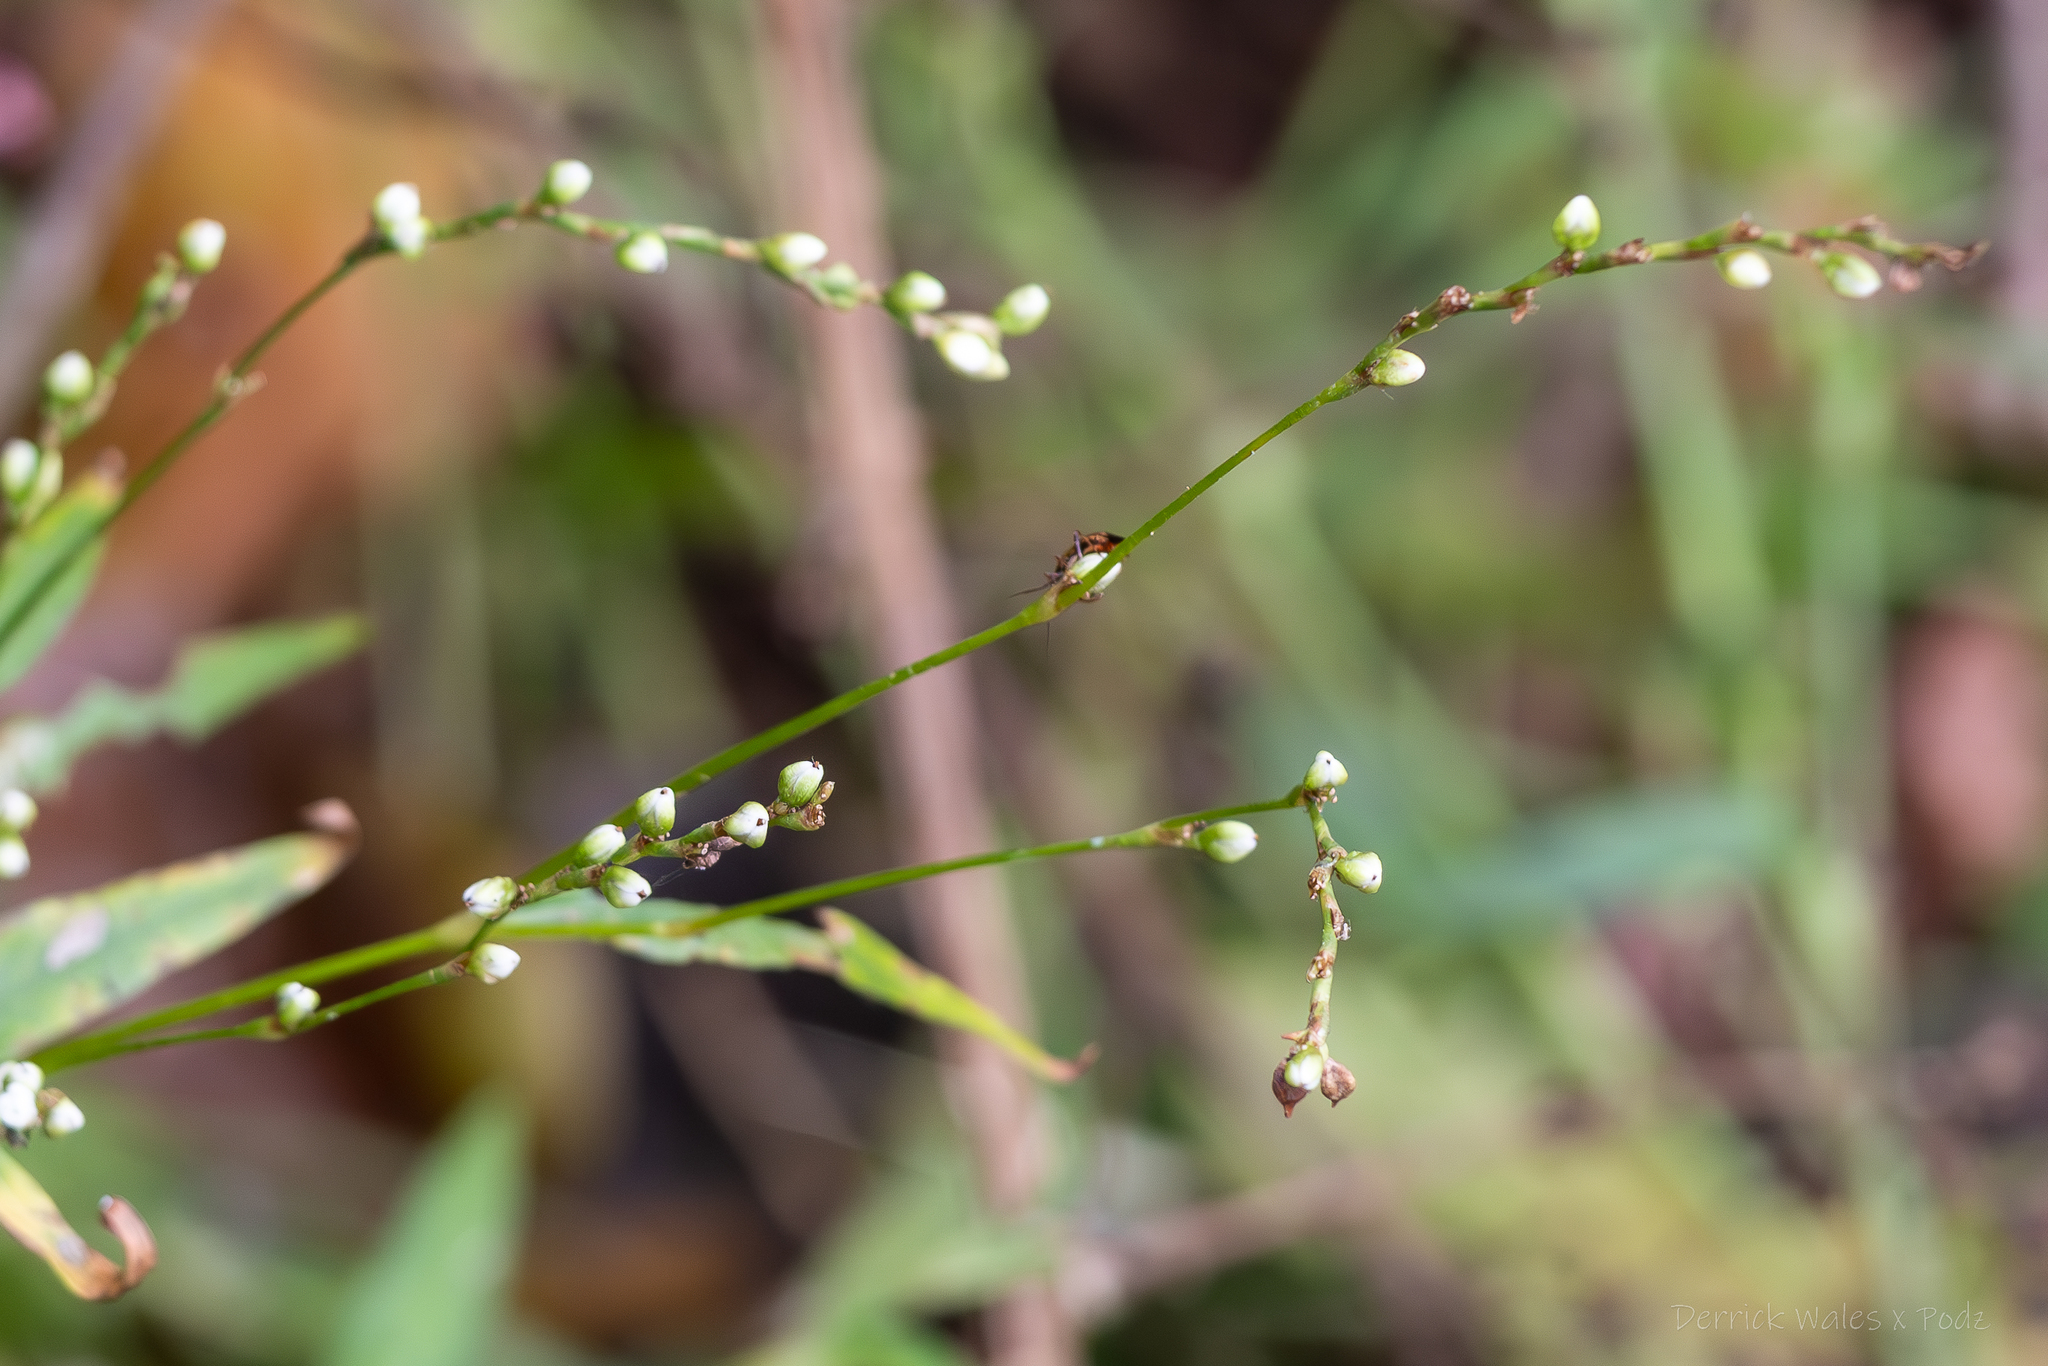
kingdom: Plantae
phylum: Tracheophyta
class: Magnoliopsida
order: Caryophyllales
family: Polygonaceae
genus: Persicaria
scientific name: Persicaria punctata
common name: Dotted smartweed
